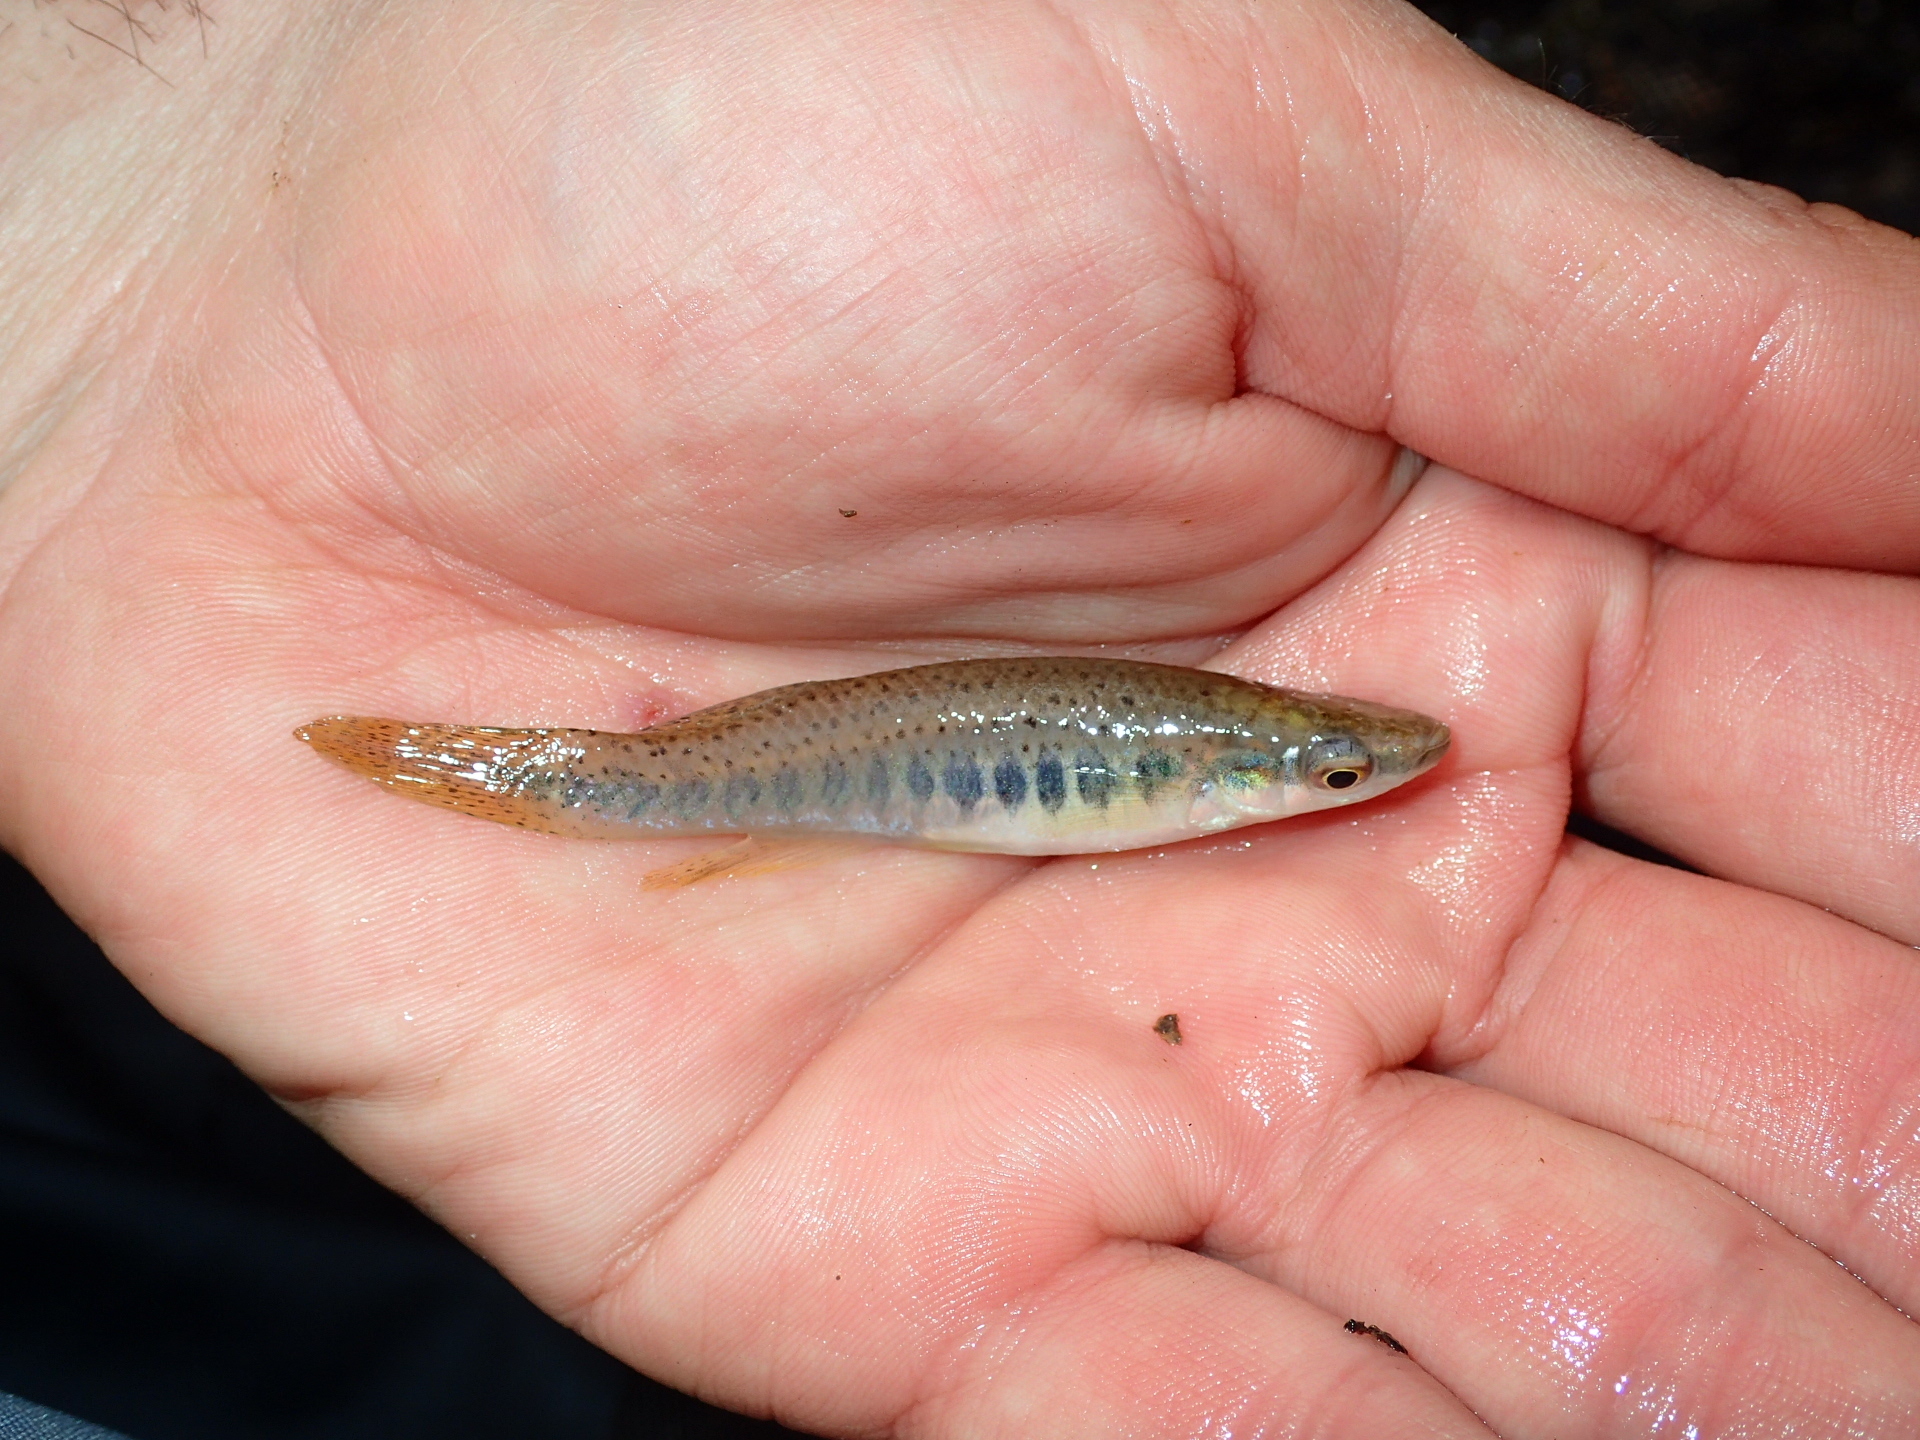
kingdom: Animalia
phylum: Chordata
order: Cyprinodontiformes
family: Fundulidae
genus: Fundulus
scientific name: Fundulus olivaceus
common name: Blackspotted topminnow
